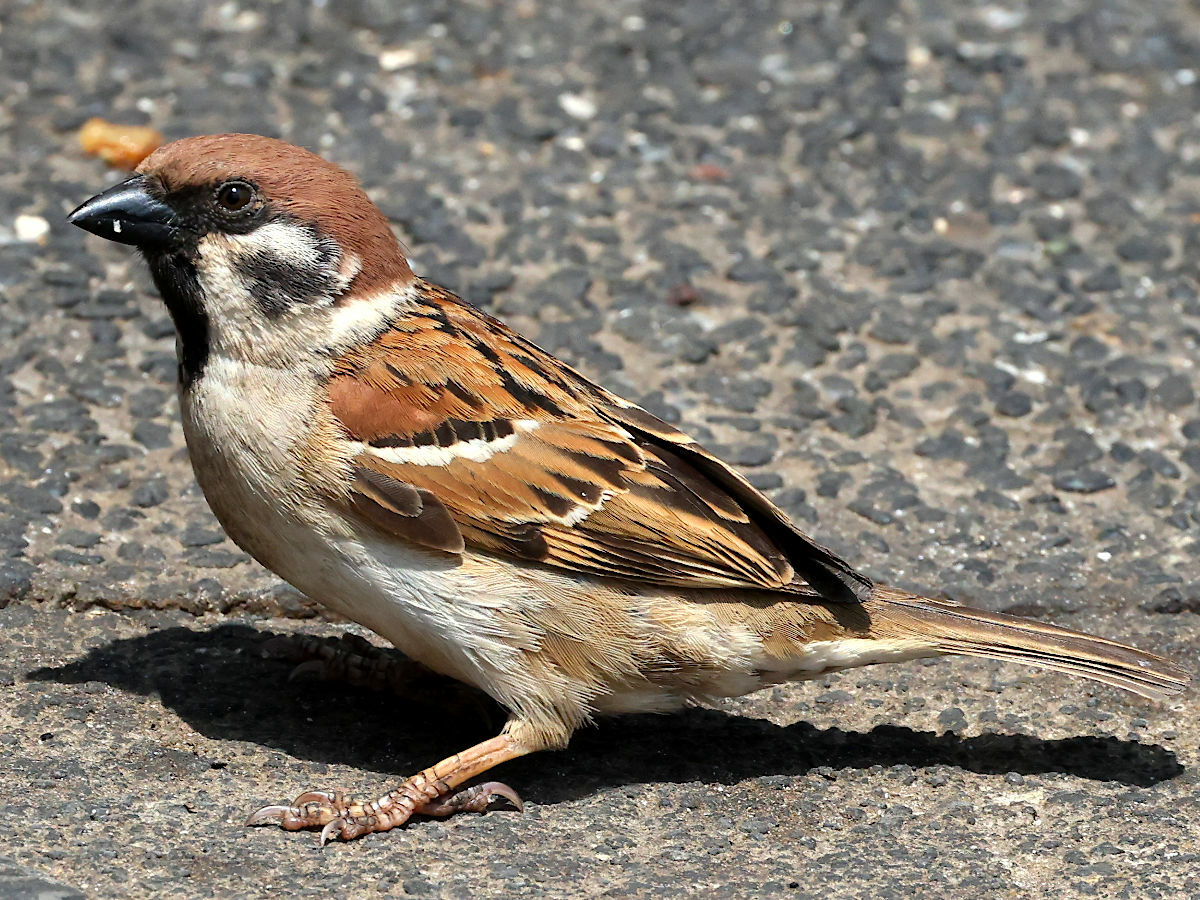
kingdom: Animalia
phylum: Chordata
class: Aves
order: Passeriformes
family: Passeridae
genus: Passer
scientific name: Passer montanus
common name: Eurasian tree sparrow
